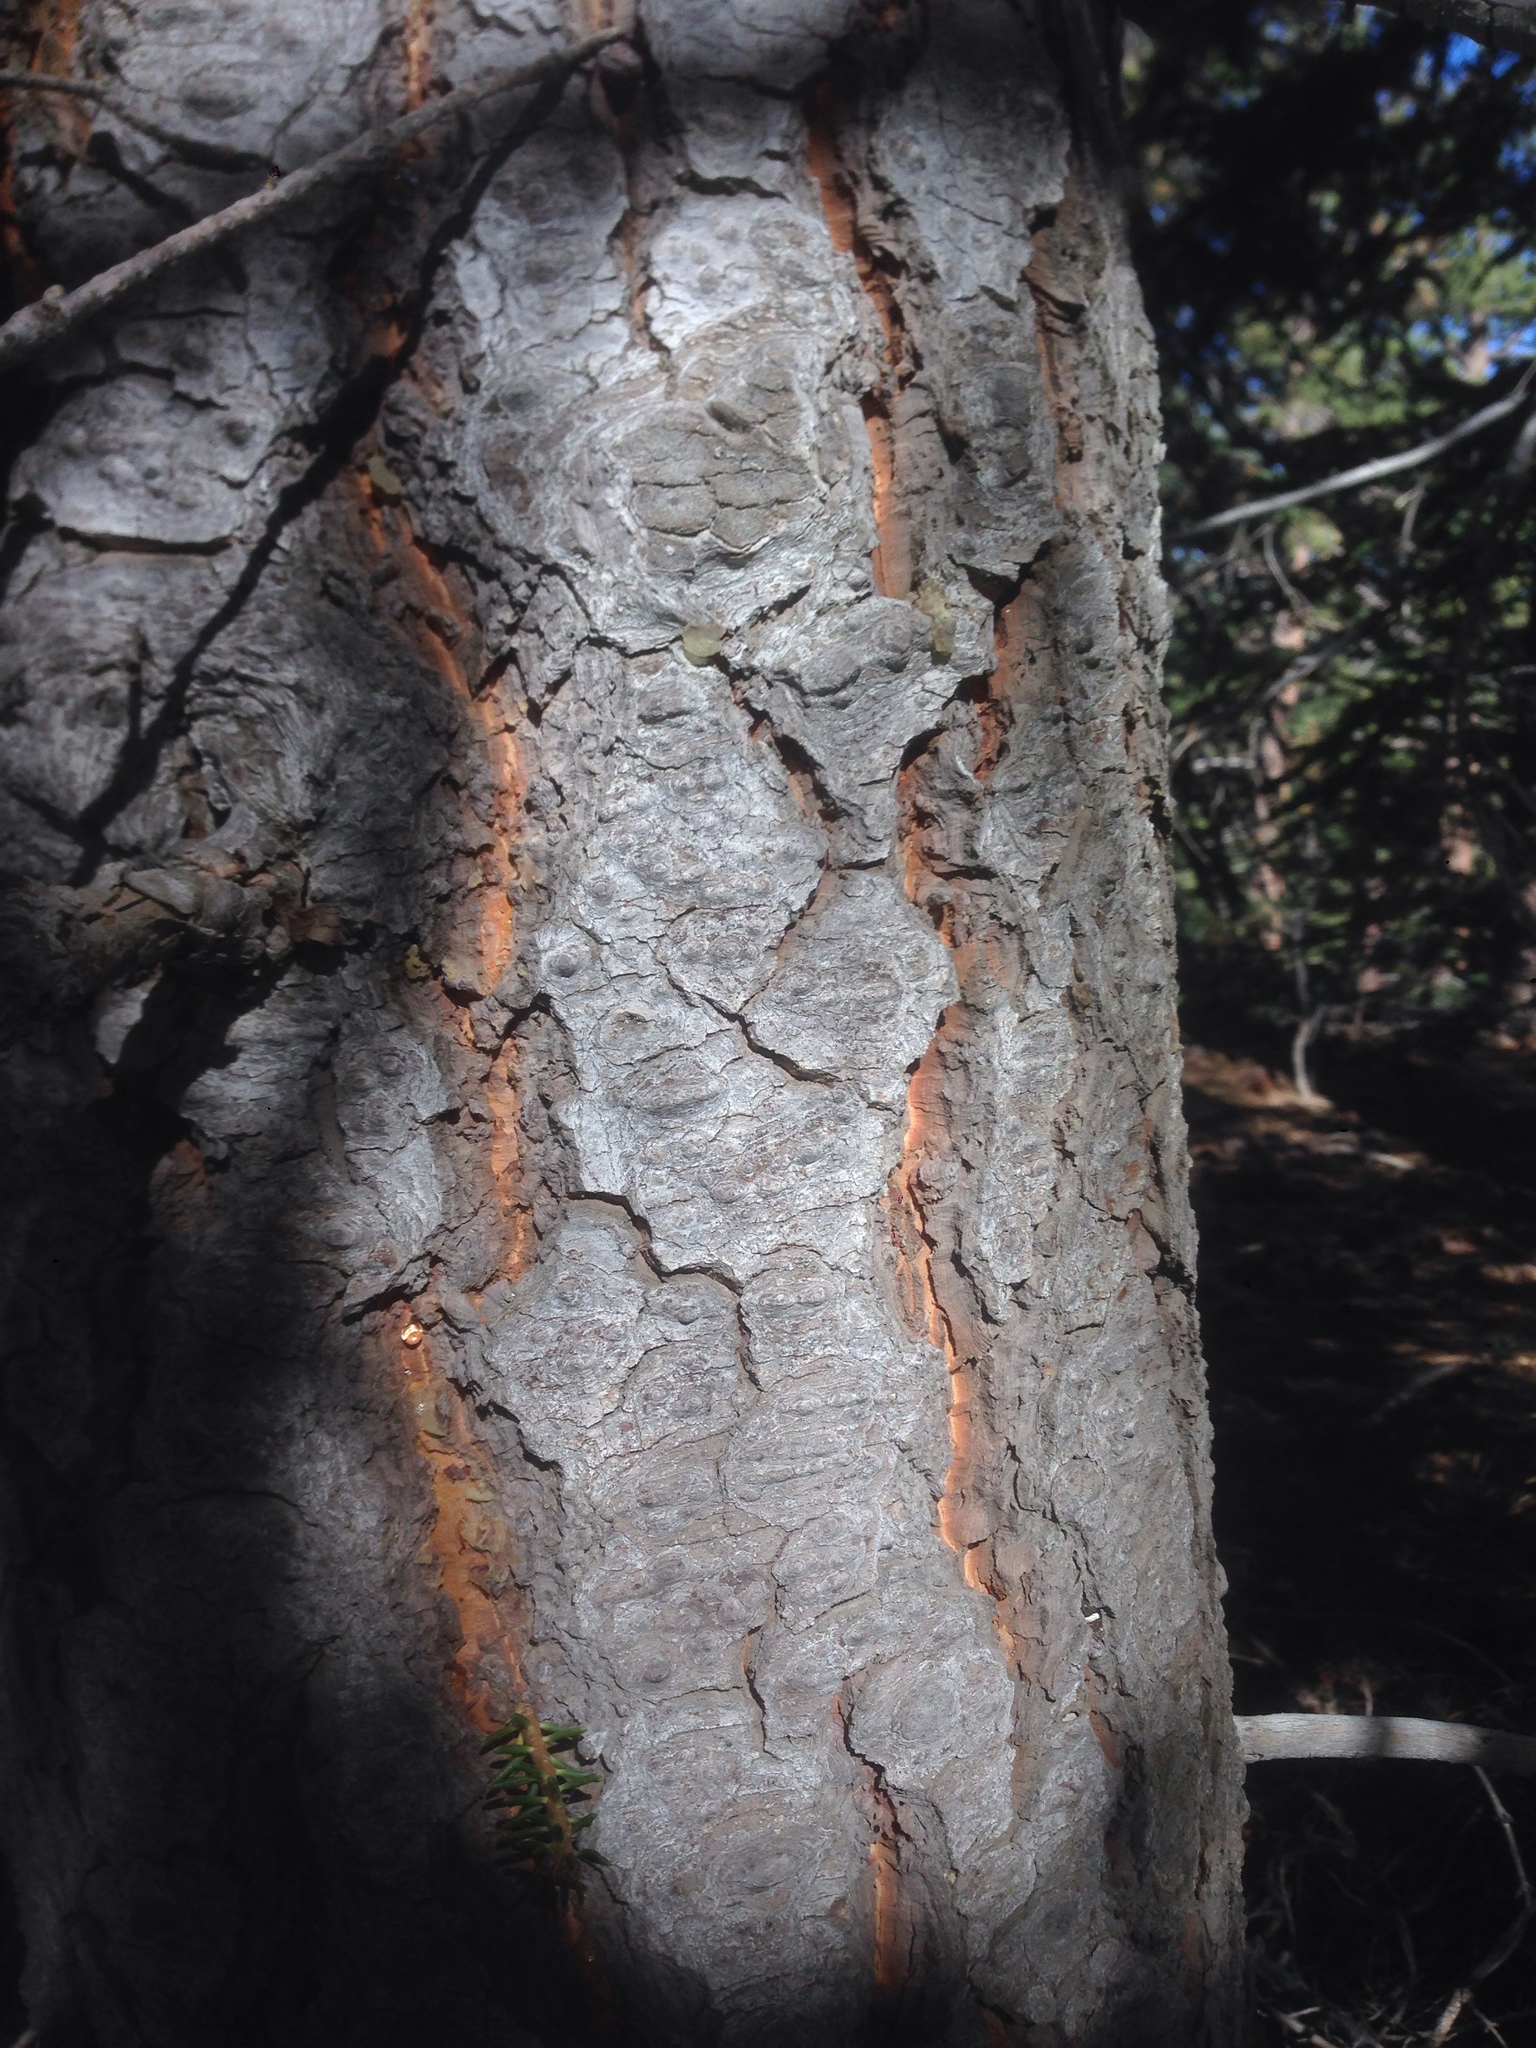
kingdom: Plantae
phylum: Tracheophyta
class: Pinopsida
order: Pinales
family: Pinaceae
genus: Abies
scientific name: Abies concolor
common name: Colorado fir
